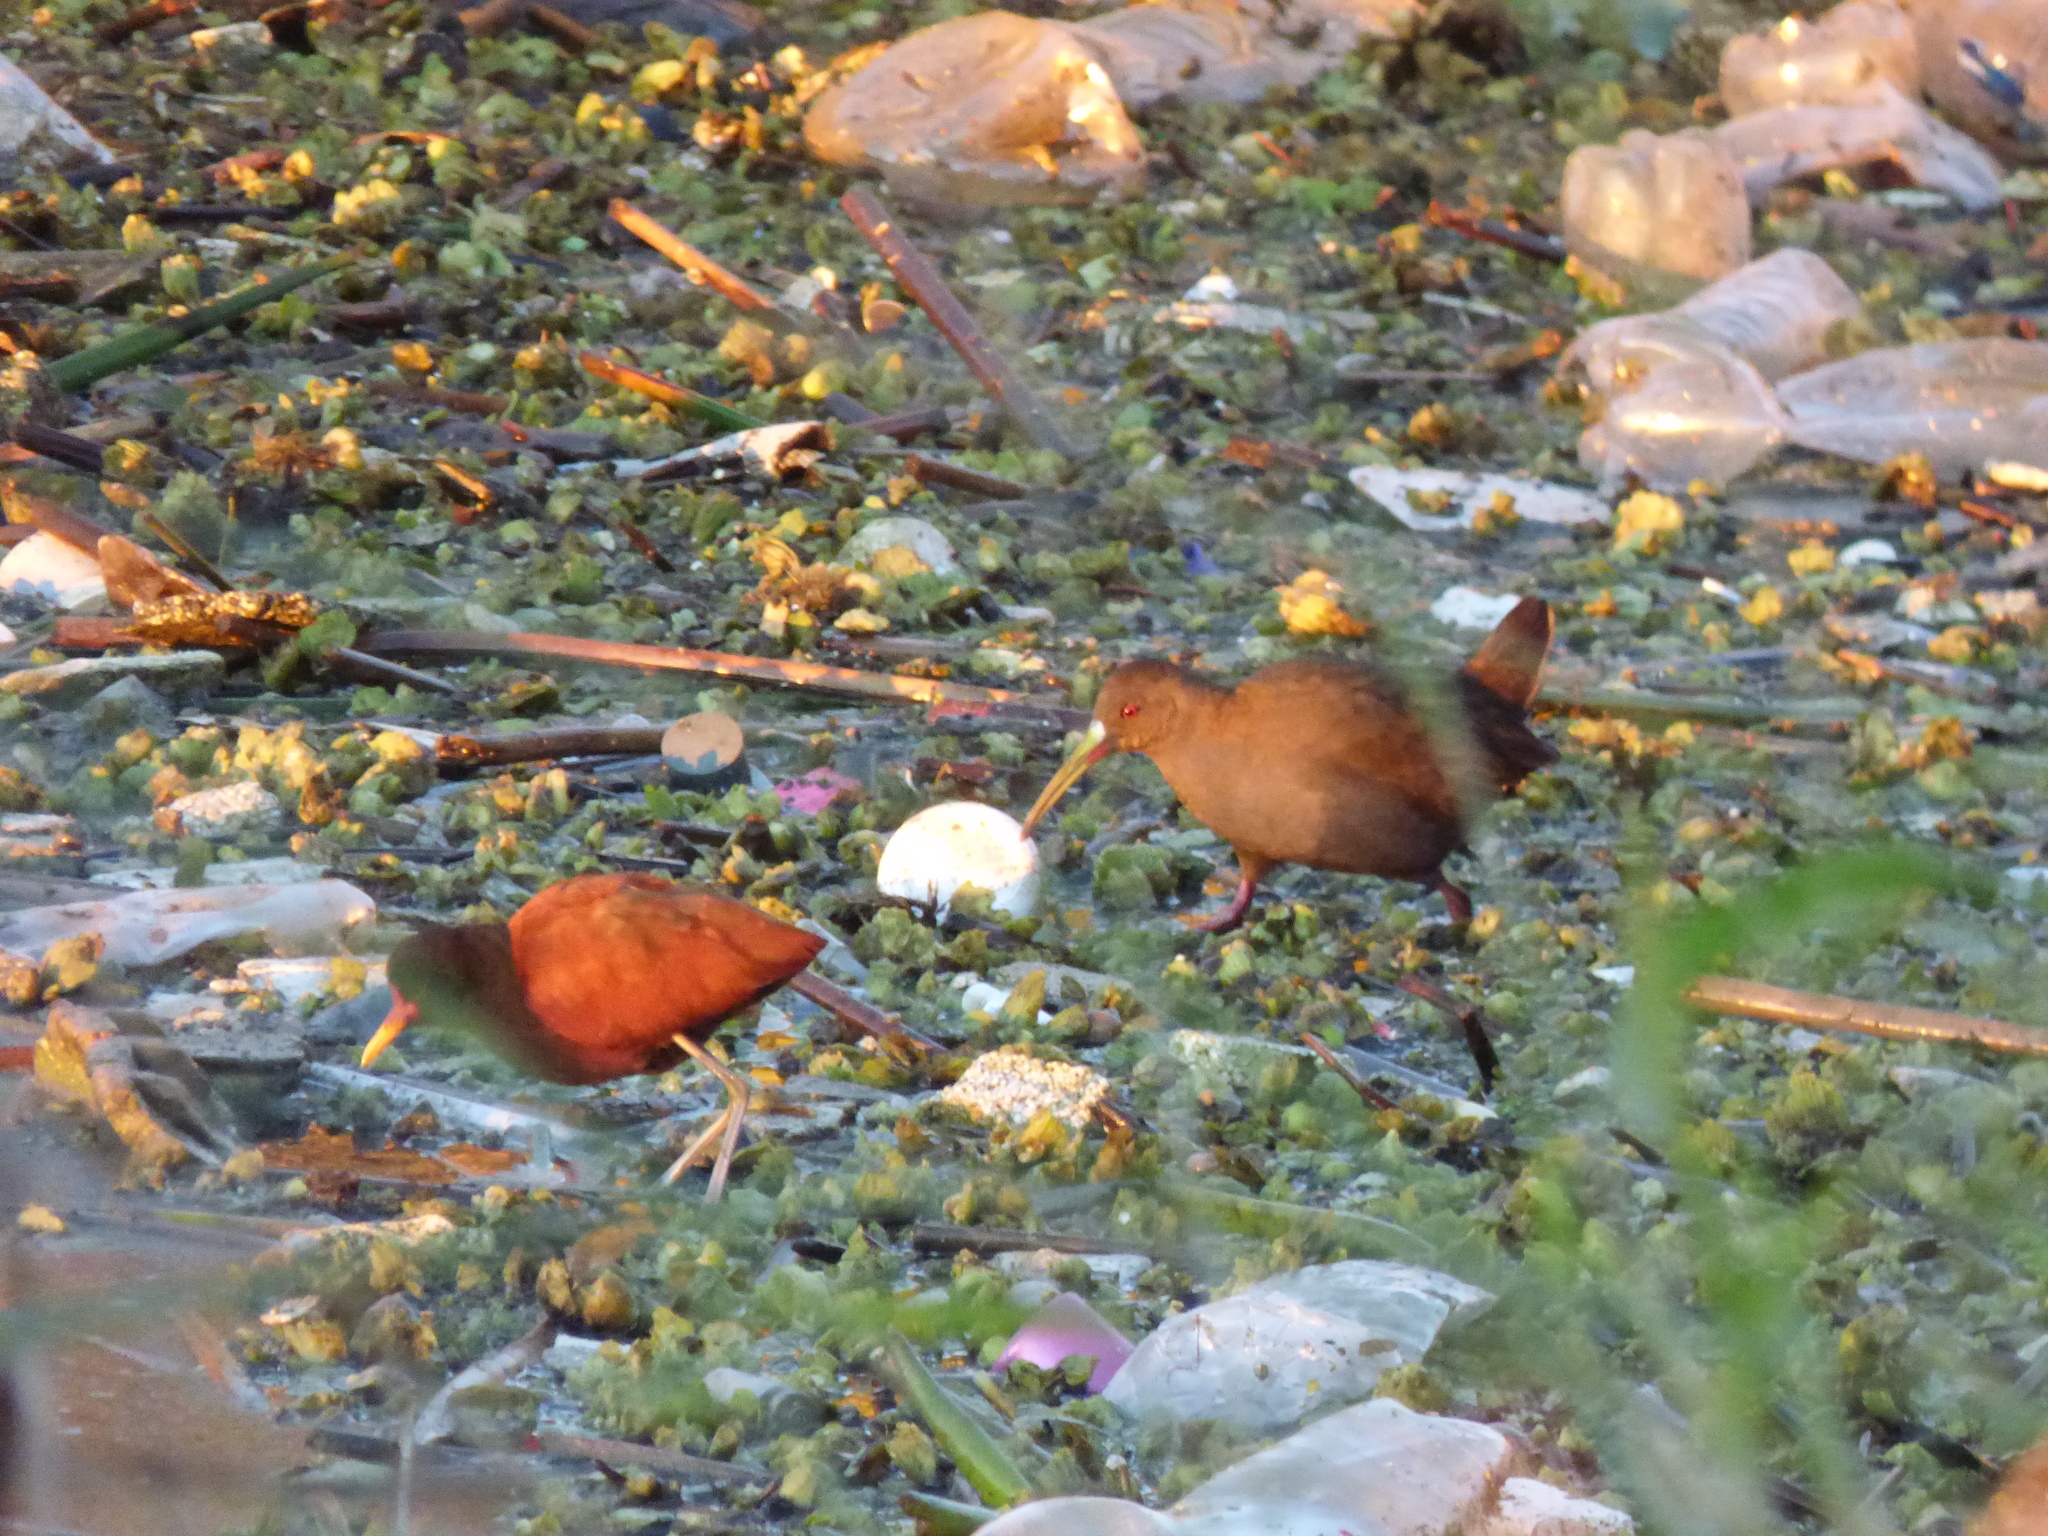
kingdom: Animalia
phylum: Chordata
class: Aves
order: Gruiformes
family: Rallidae
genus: Pardirallus
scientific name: Pardirallus sanguinolentus
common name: Plumbeous rail
